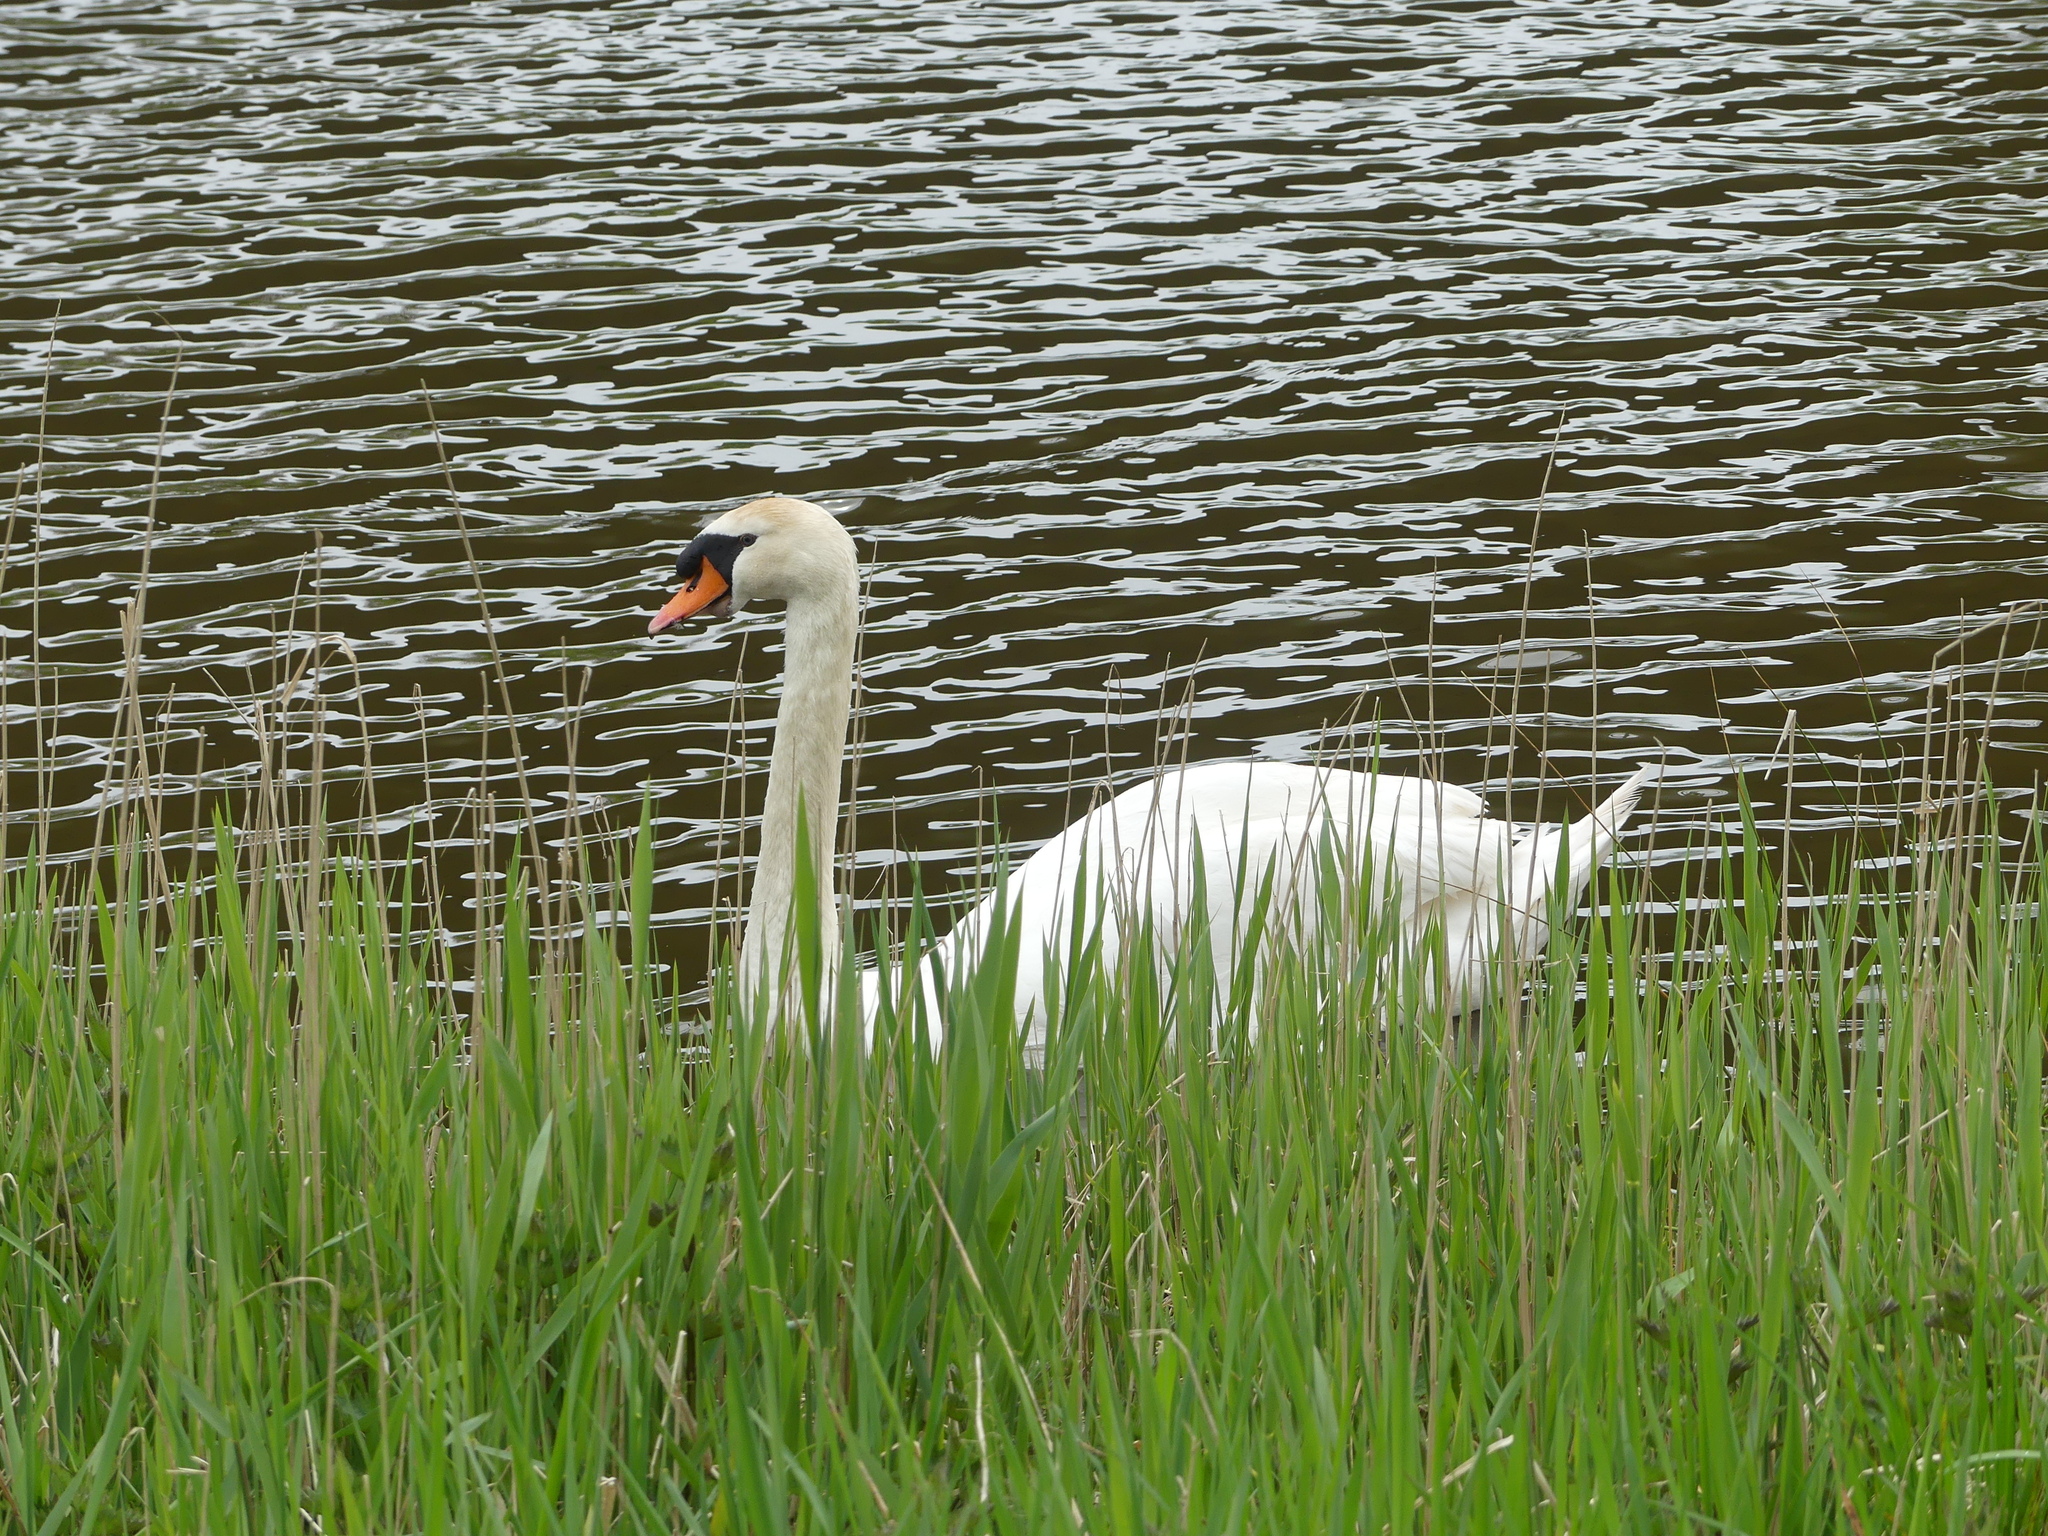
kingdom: Animalia
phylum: Chordata
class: Aves
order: Anseriformes
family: Anatidae
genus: Cygnus
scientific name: Cygnus olor
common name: Mute swan
